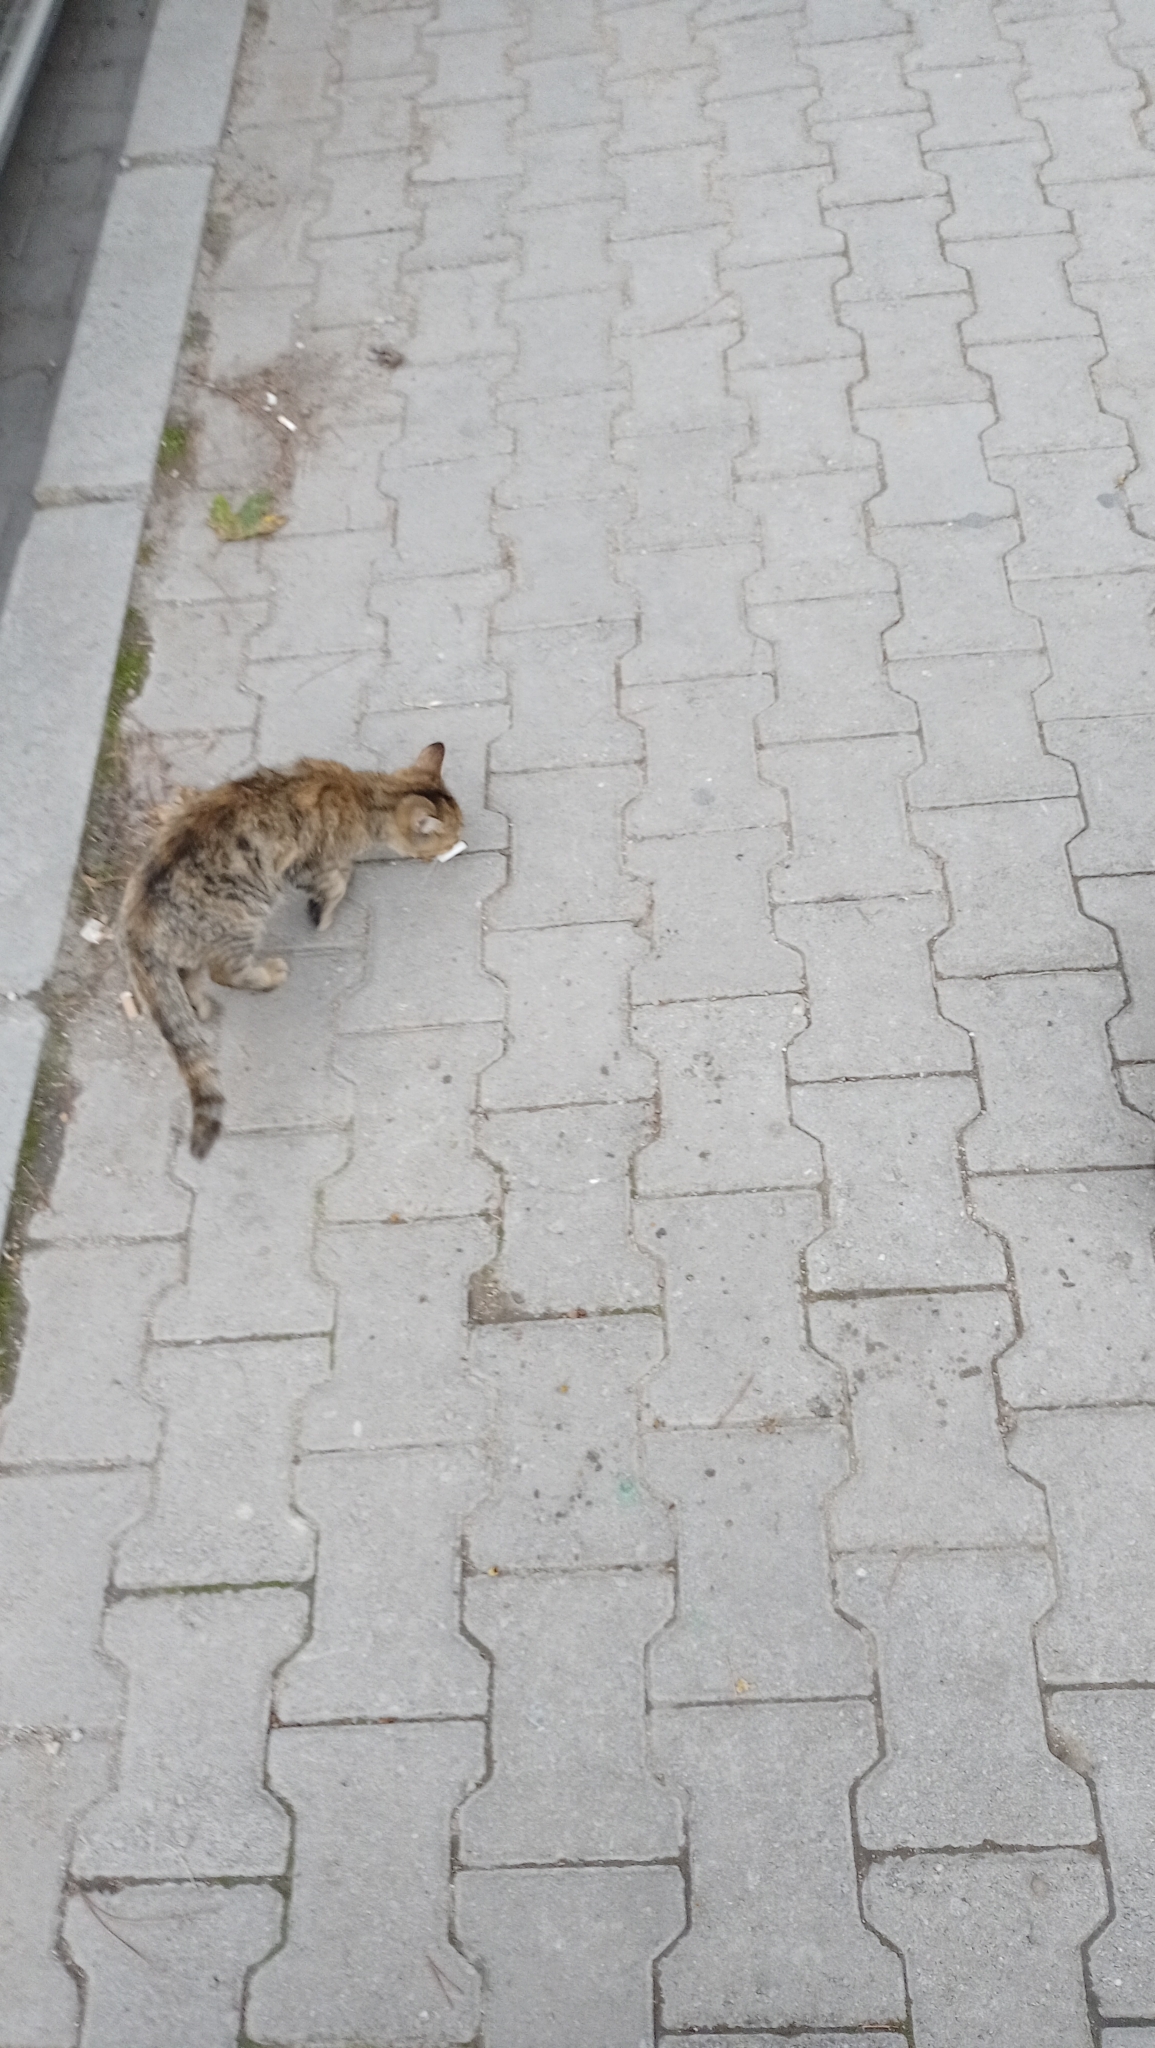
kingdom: Animalia
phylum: Chordata
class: Mammalia
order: Carnivora
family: Felidae
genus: Felis
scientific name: Felis catus
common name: Domestic cat
